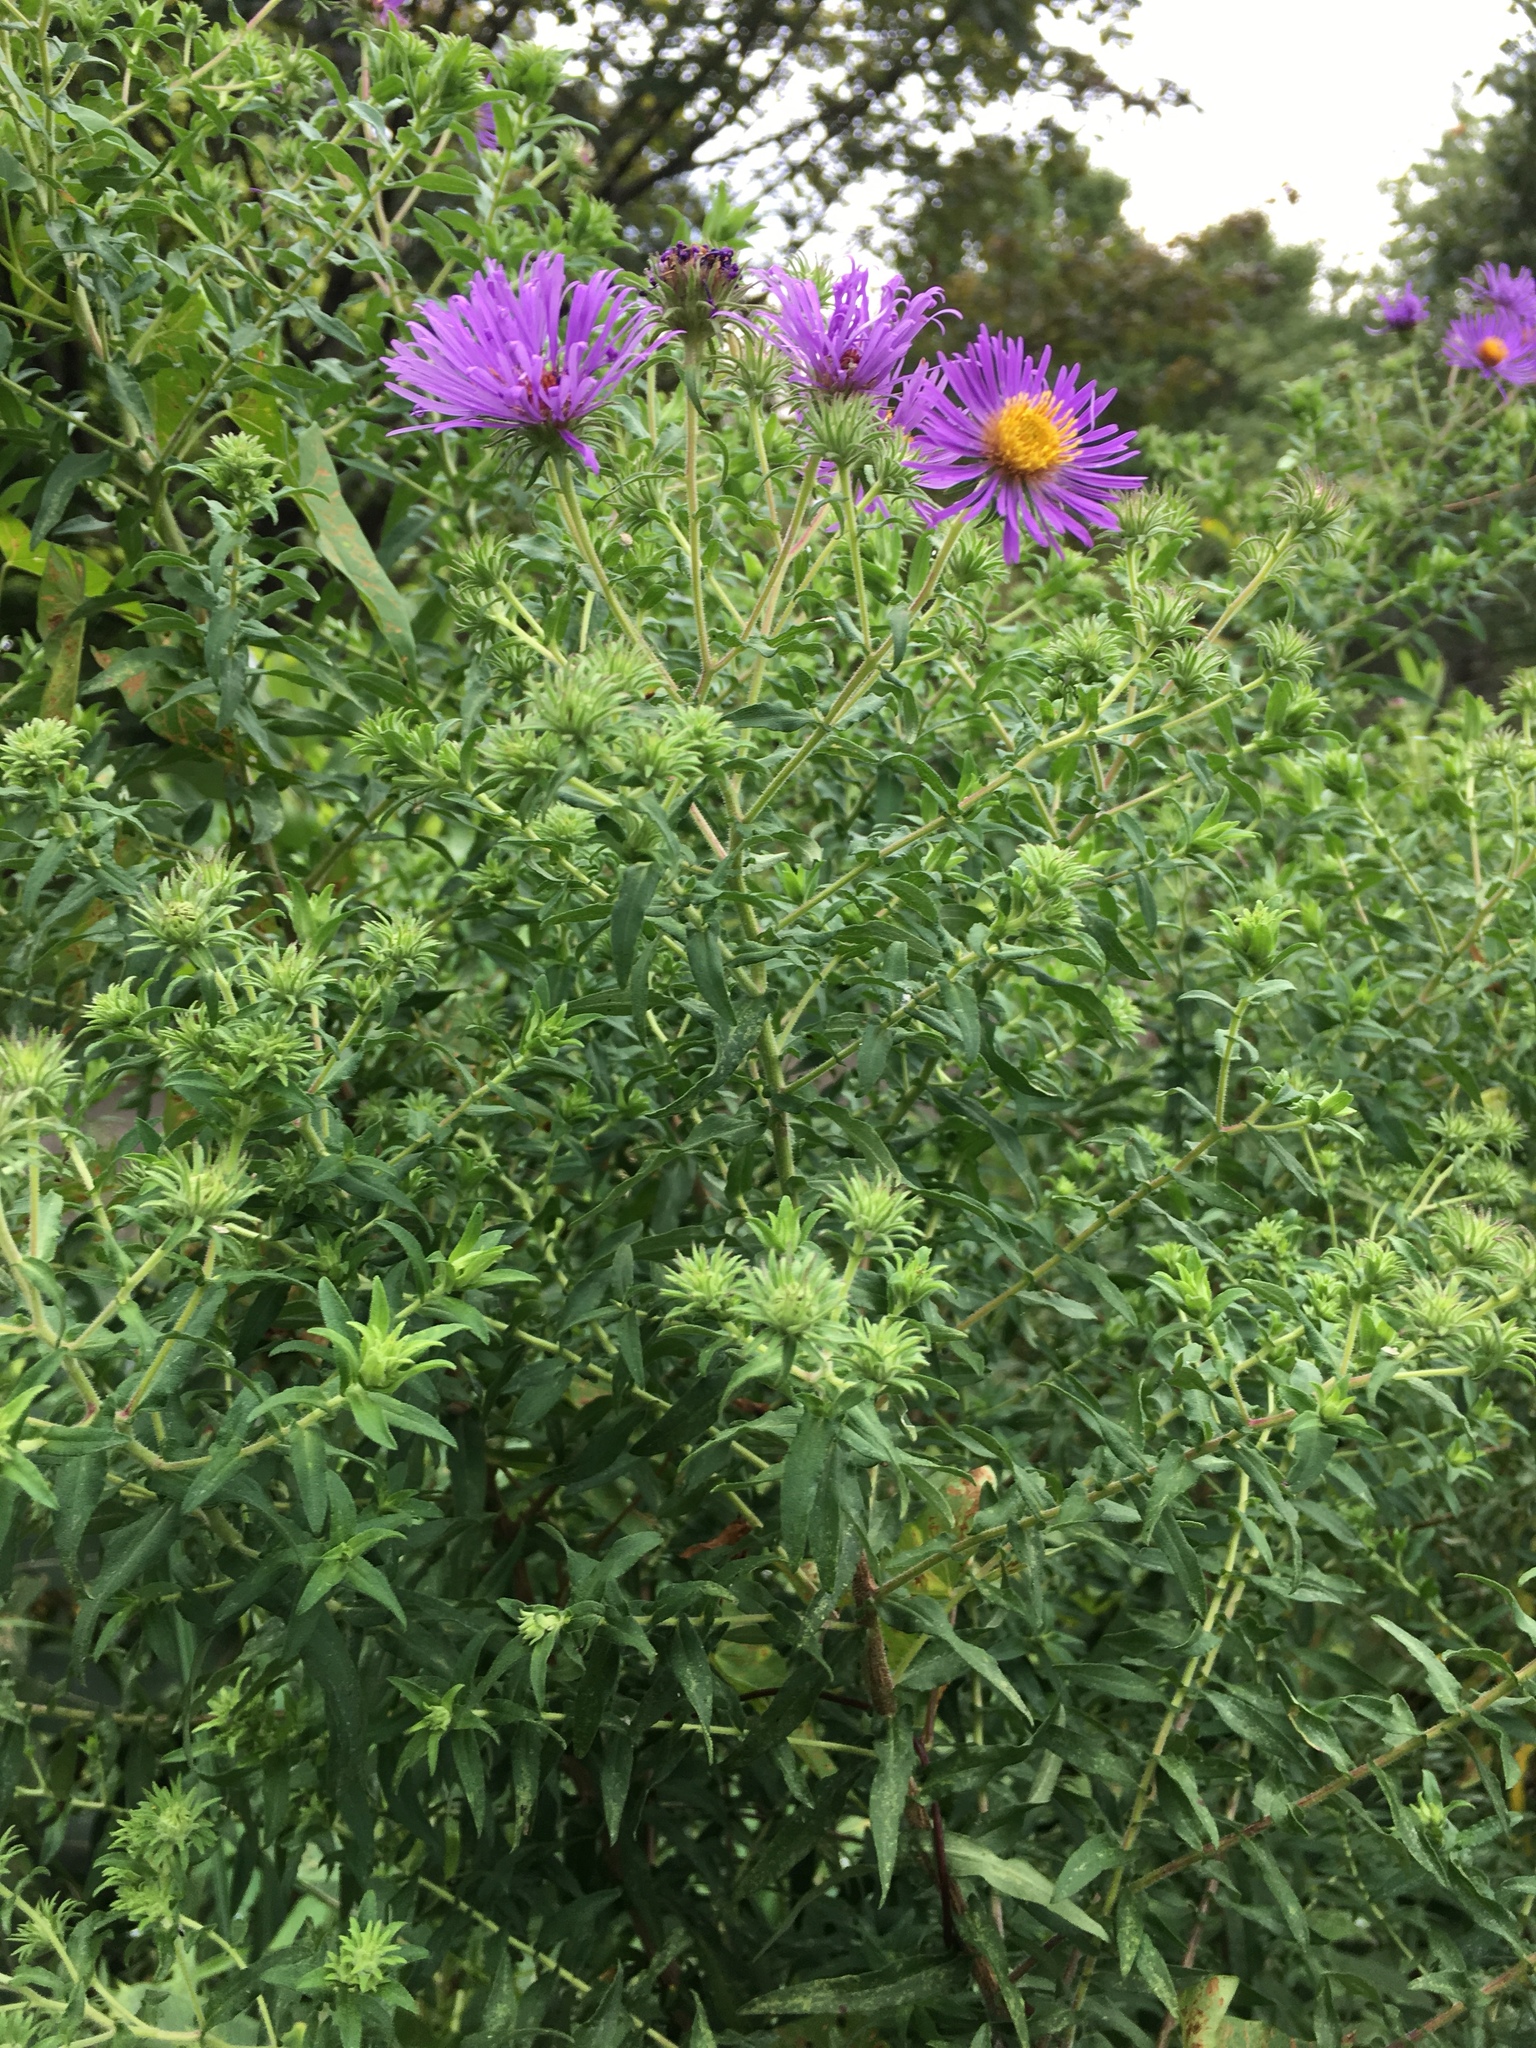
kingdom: Plantae
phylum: Tracheophyta
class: Magnoliopsida
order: Asterales
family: Asteraceae
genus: Symphyotrichum
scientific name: Symphyotrichum novae-angliae
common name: Michaelmas daisy
